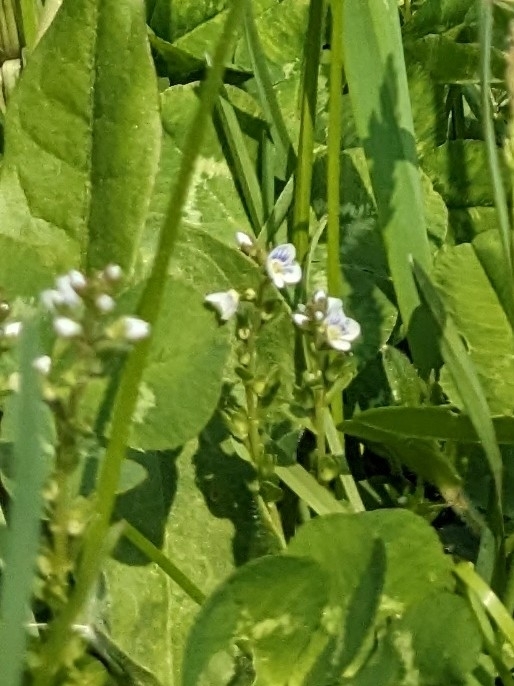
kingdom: Plantae
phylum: Tracheophyta
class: Magnoliopsida
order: Lamiales
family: Plantaginaceae
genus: Veronica
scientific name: Veronica serpyllifolia
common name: Thyme-leaved speedwell
